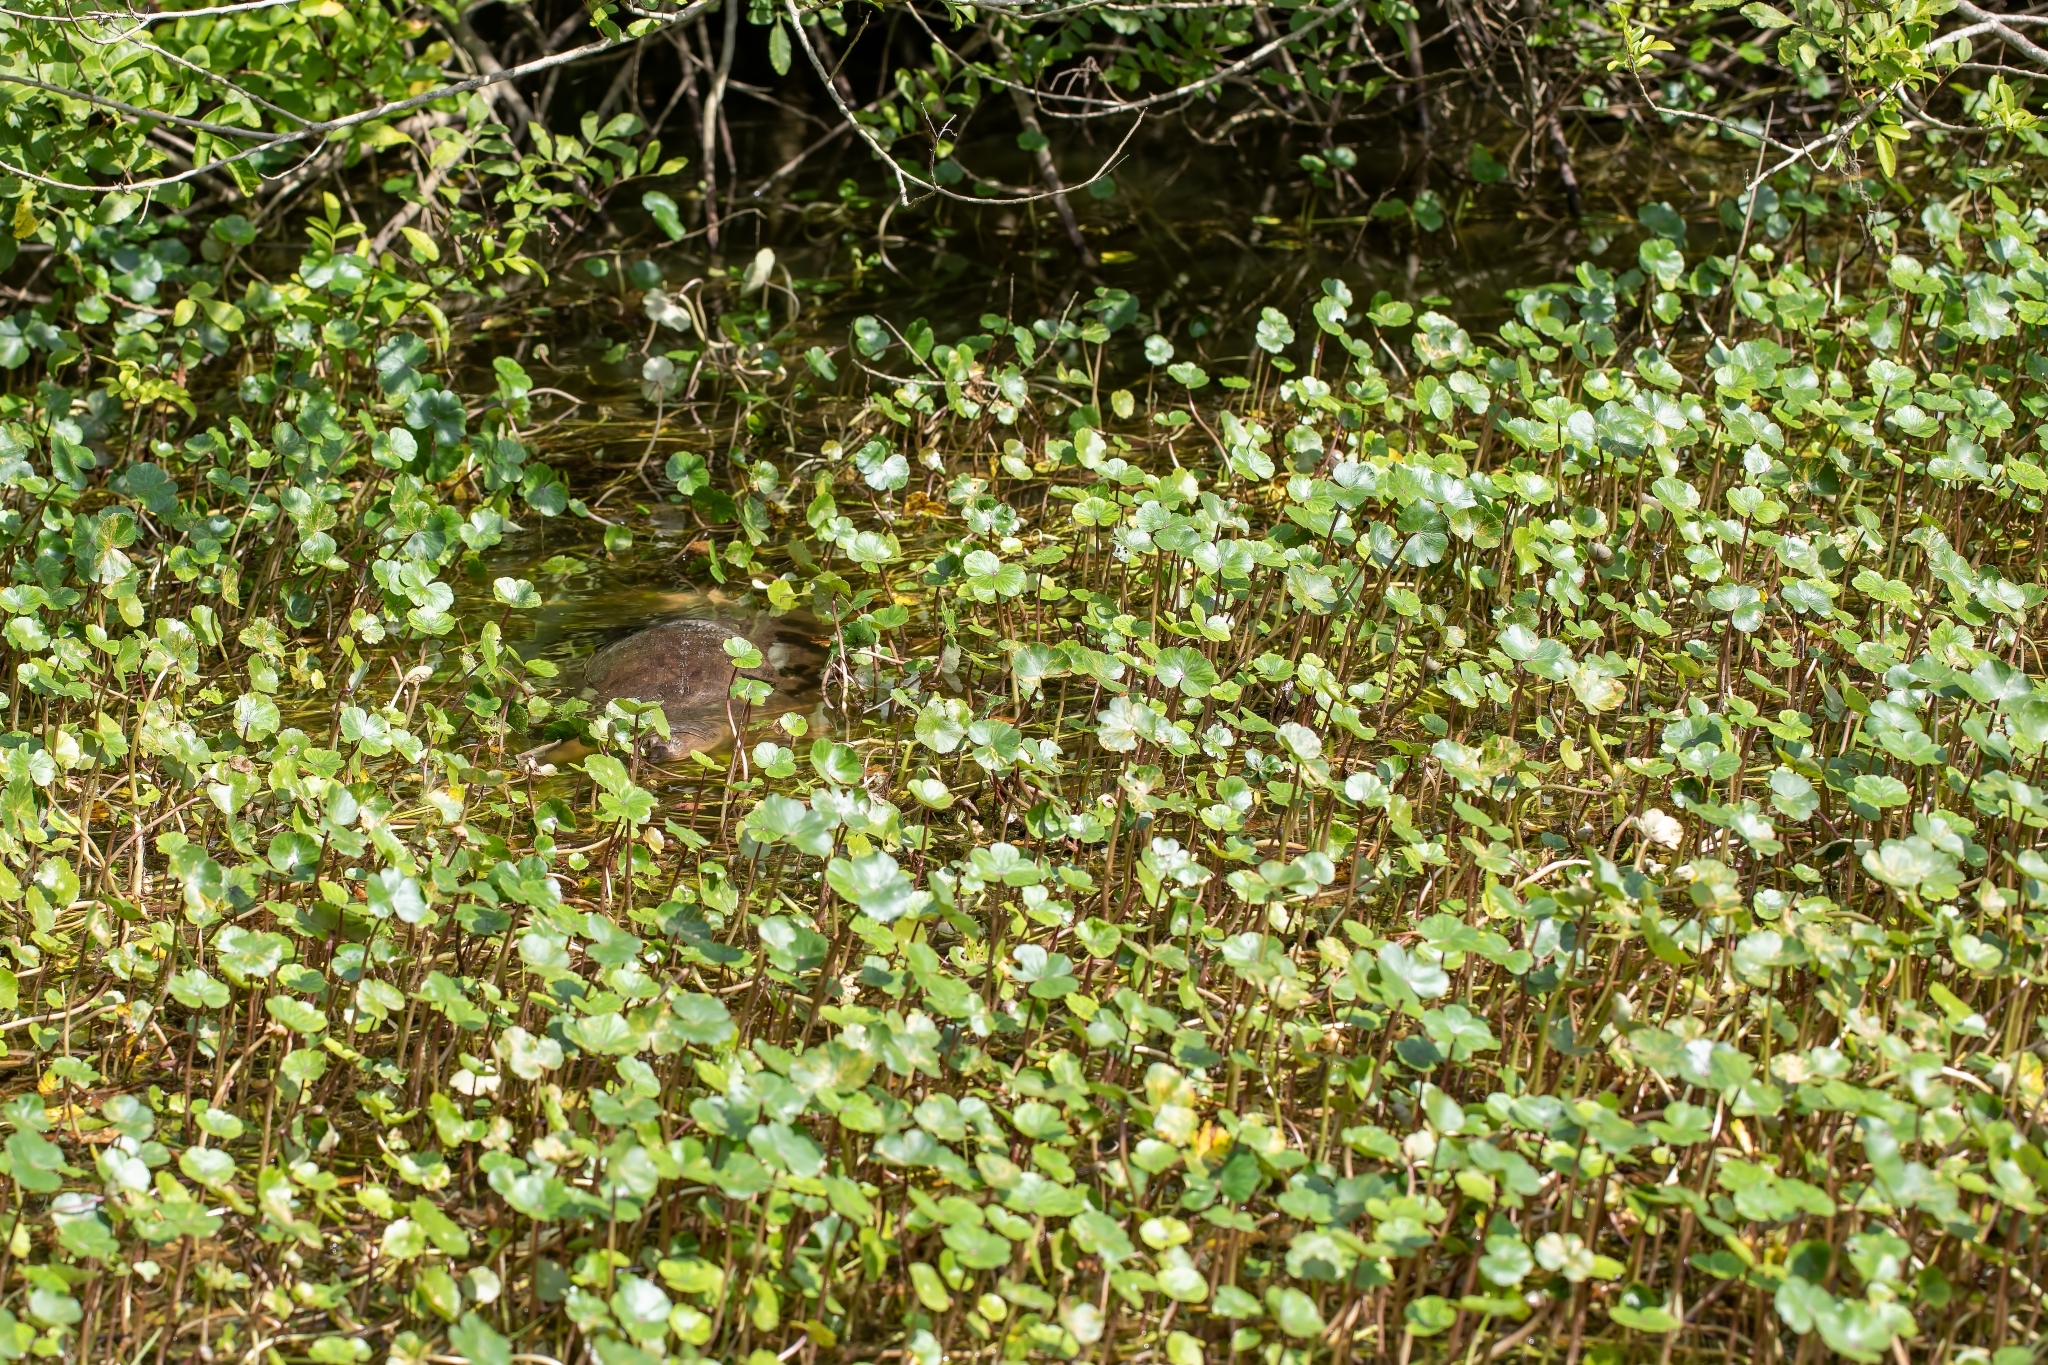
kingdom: Animalia
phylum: Chordata
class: Testudines
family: Trionychidae
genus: Apalone
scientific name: Apalone ferox
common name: Florida softshell turtle
